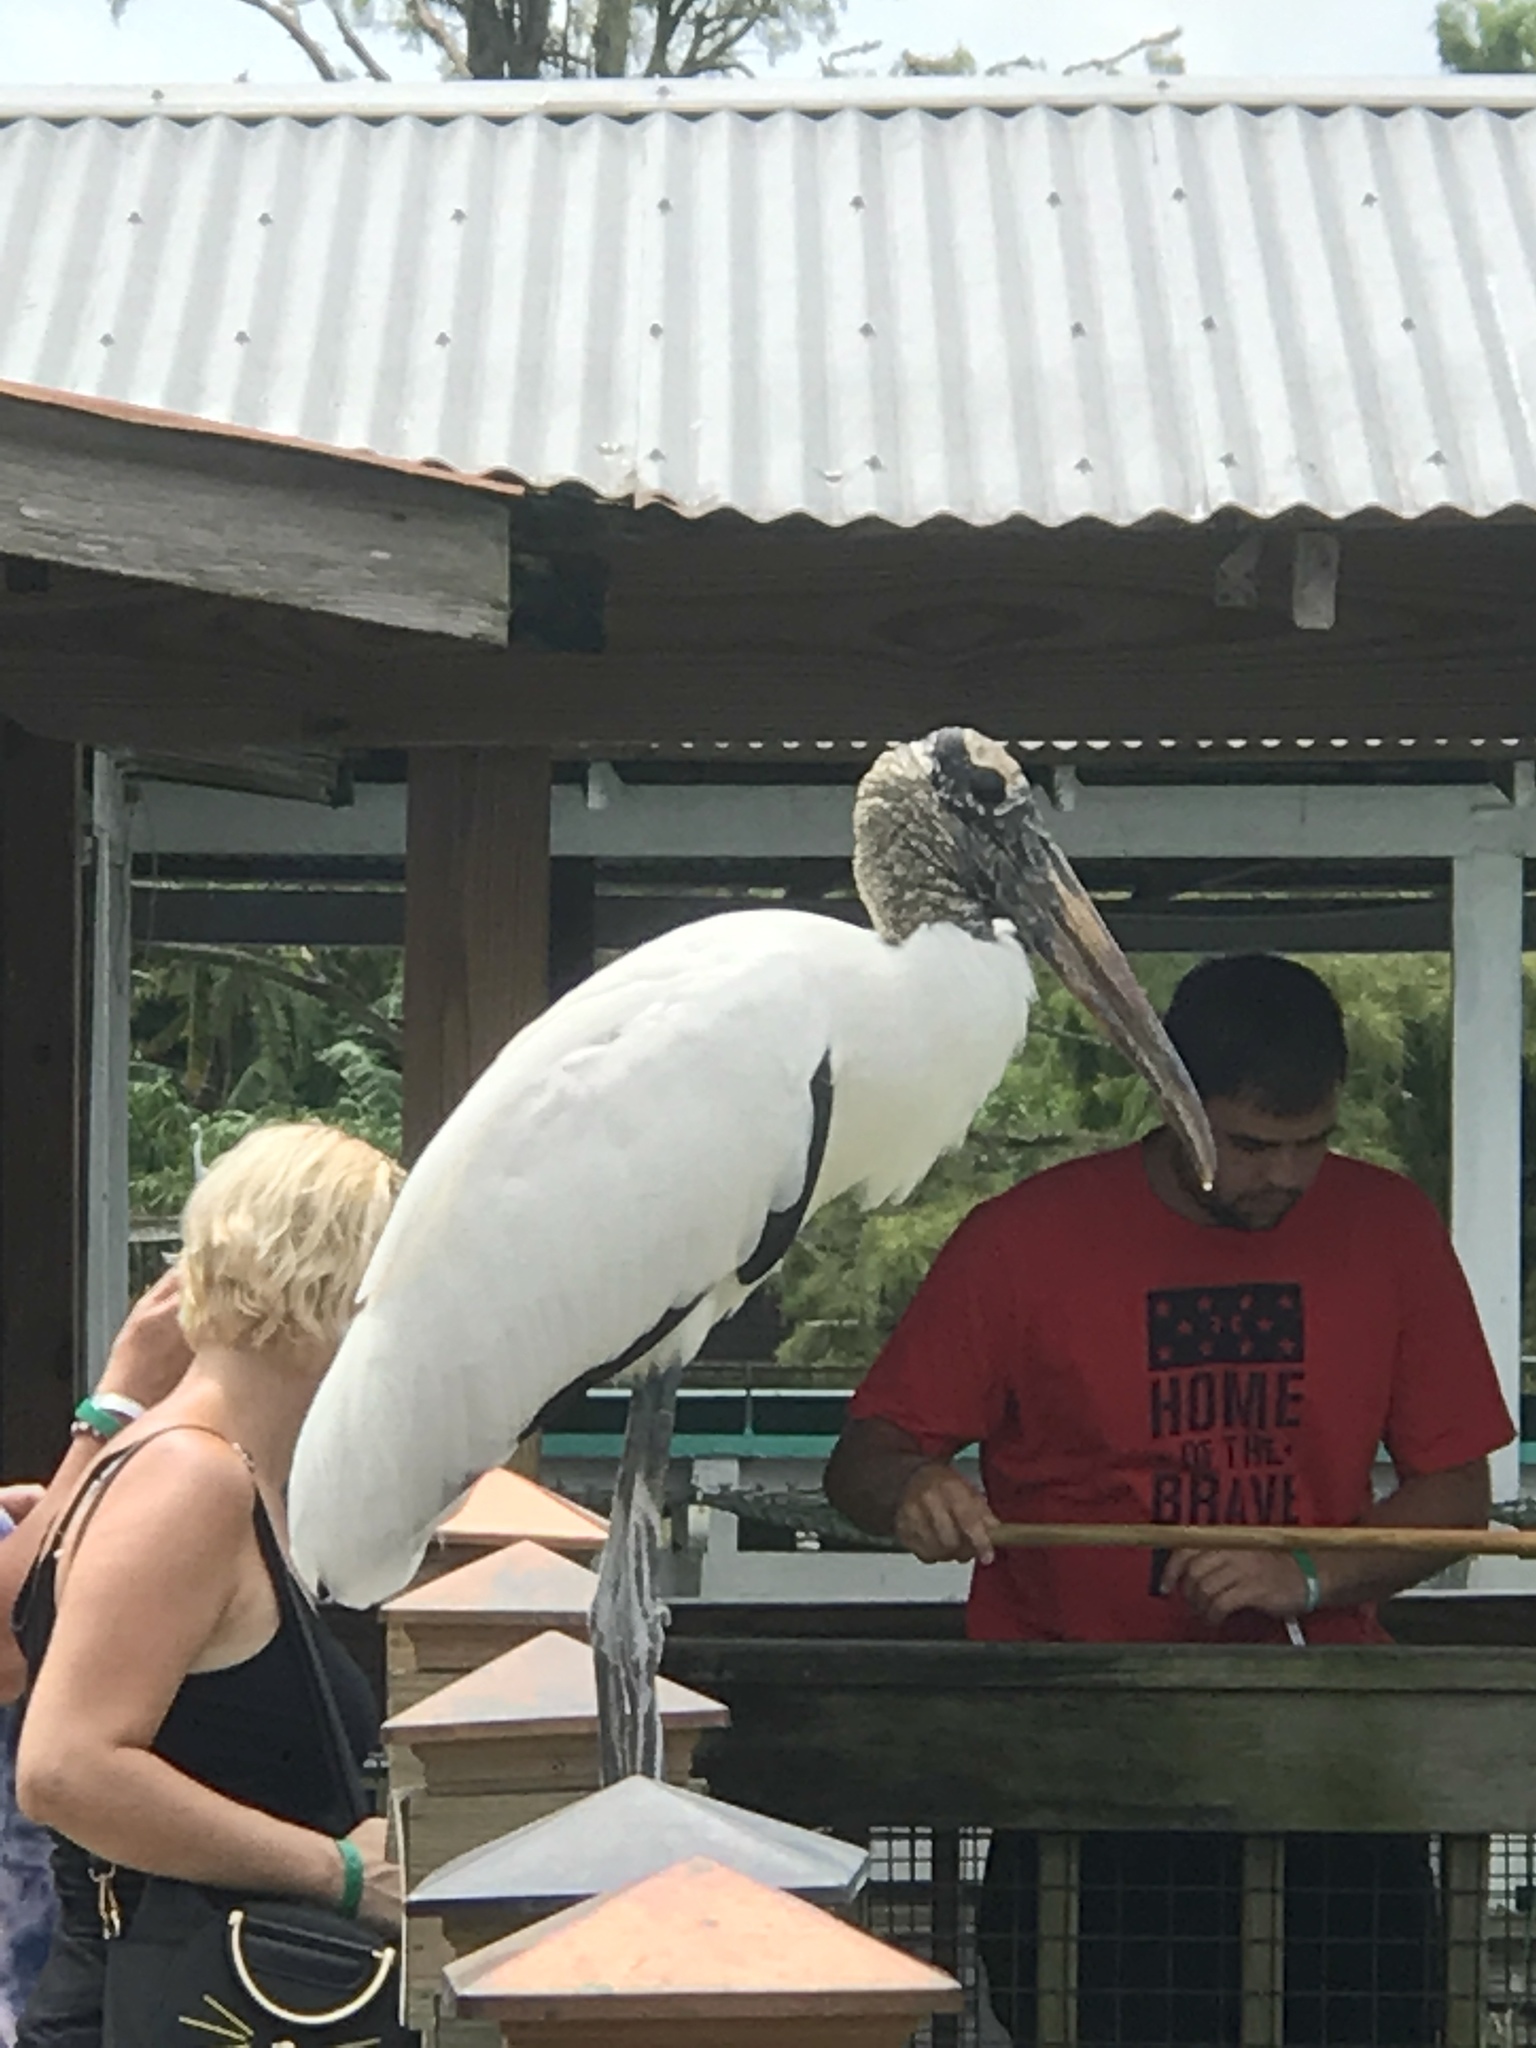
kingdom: Animalia
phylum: Chordata
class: Aves
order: Ciconiiformes
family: Ciconiidae
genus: Mycteria
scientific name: Mycteria americana
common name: Wood stork
